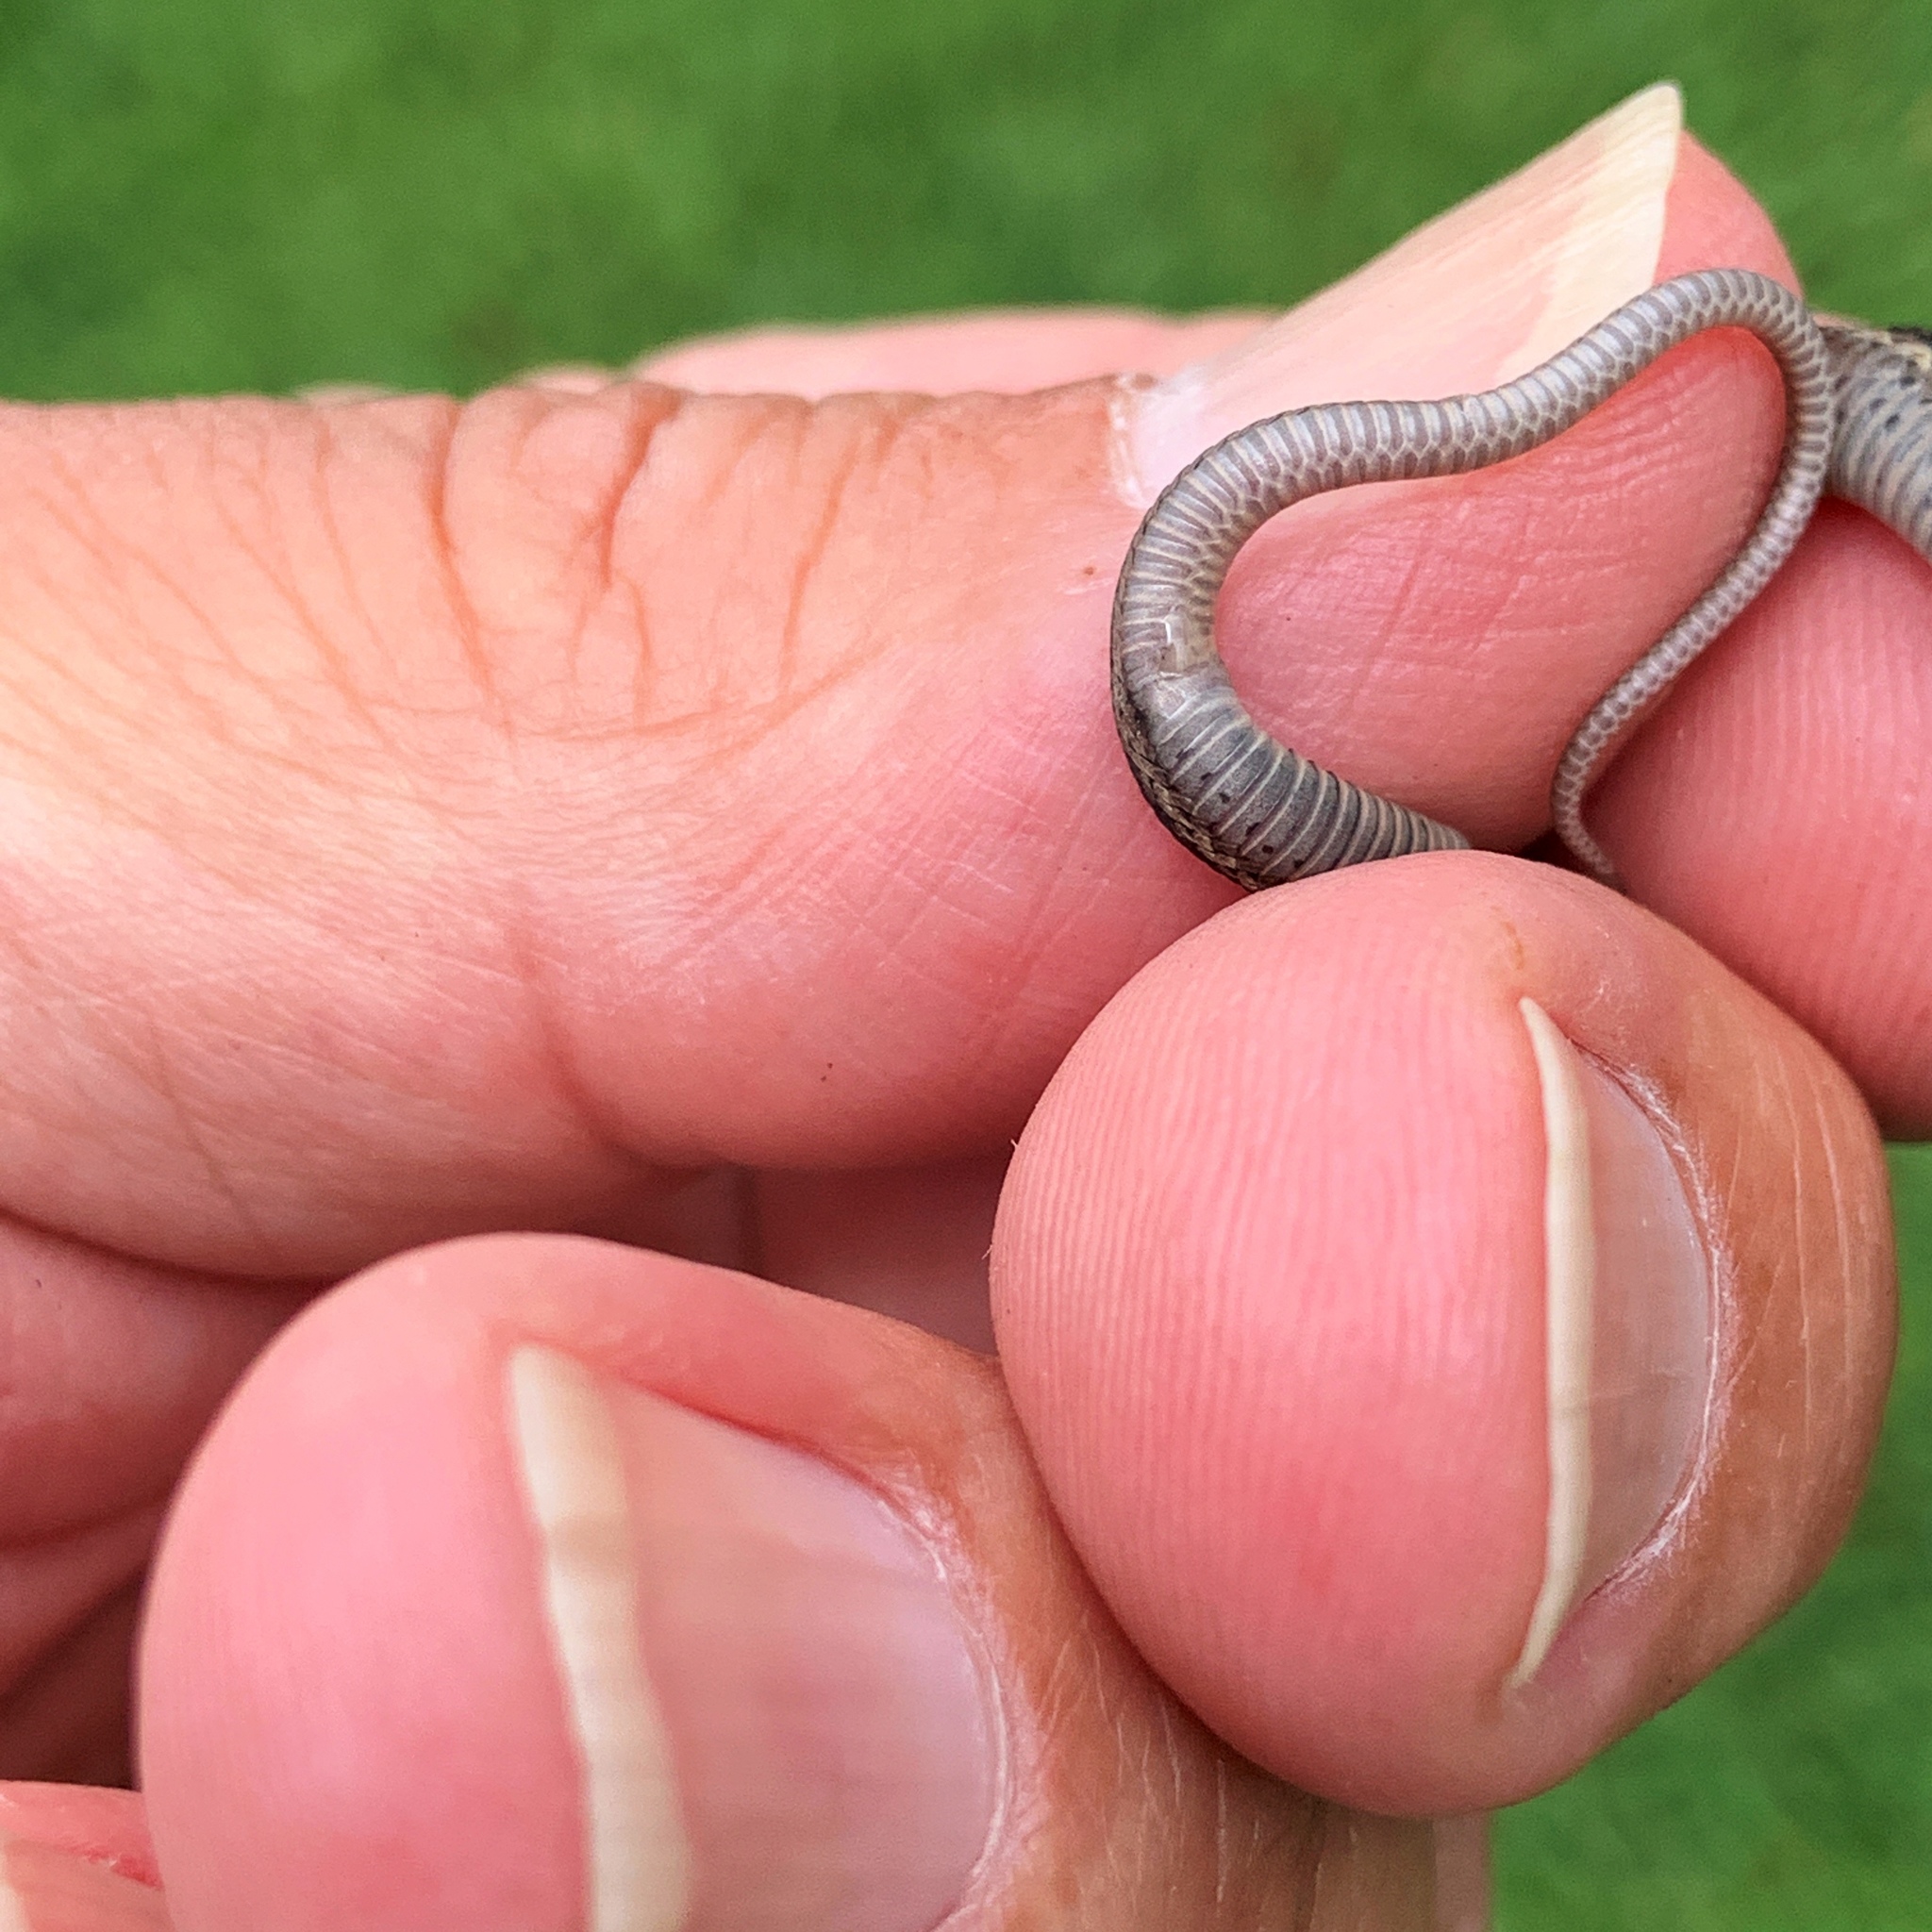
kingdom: Animalia
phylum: Chordata
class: Squamata
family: Colubridae
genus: Thamnophis
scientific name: Thamnophis sirtalis
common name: Common garter snake
